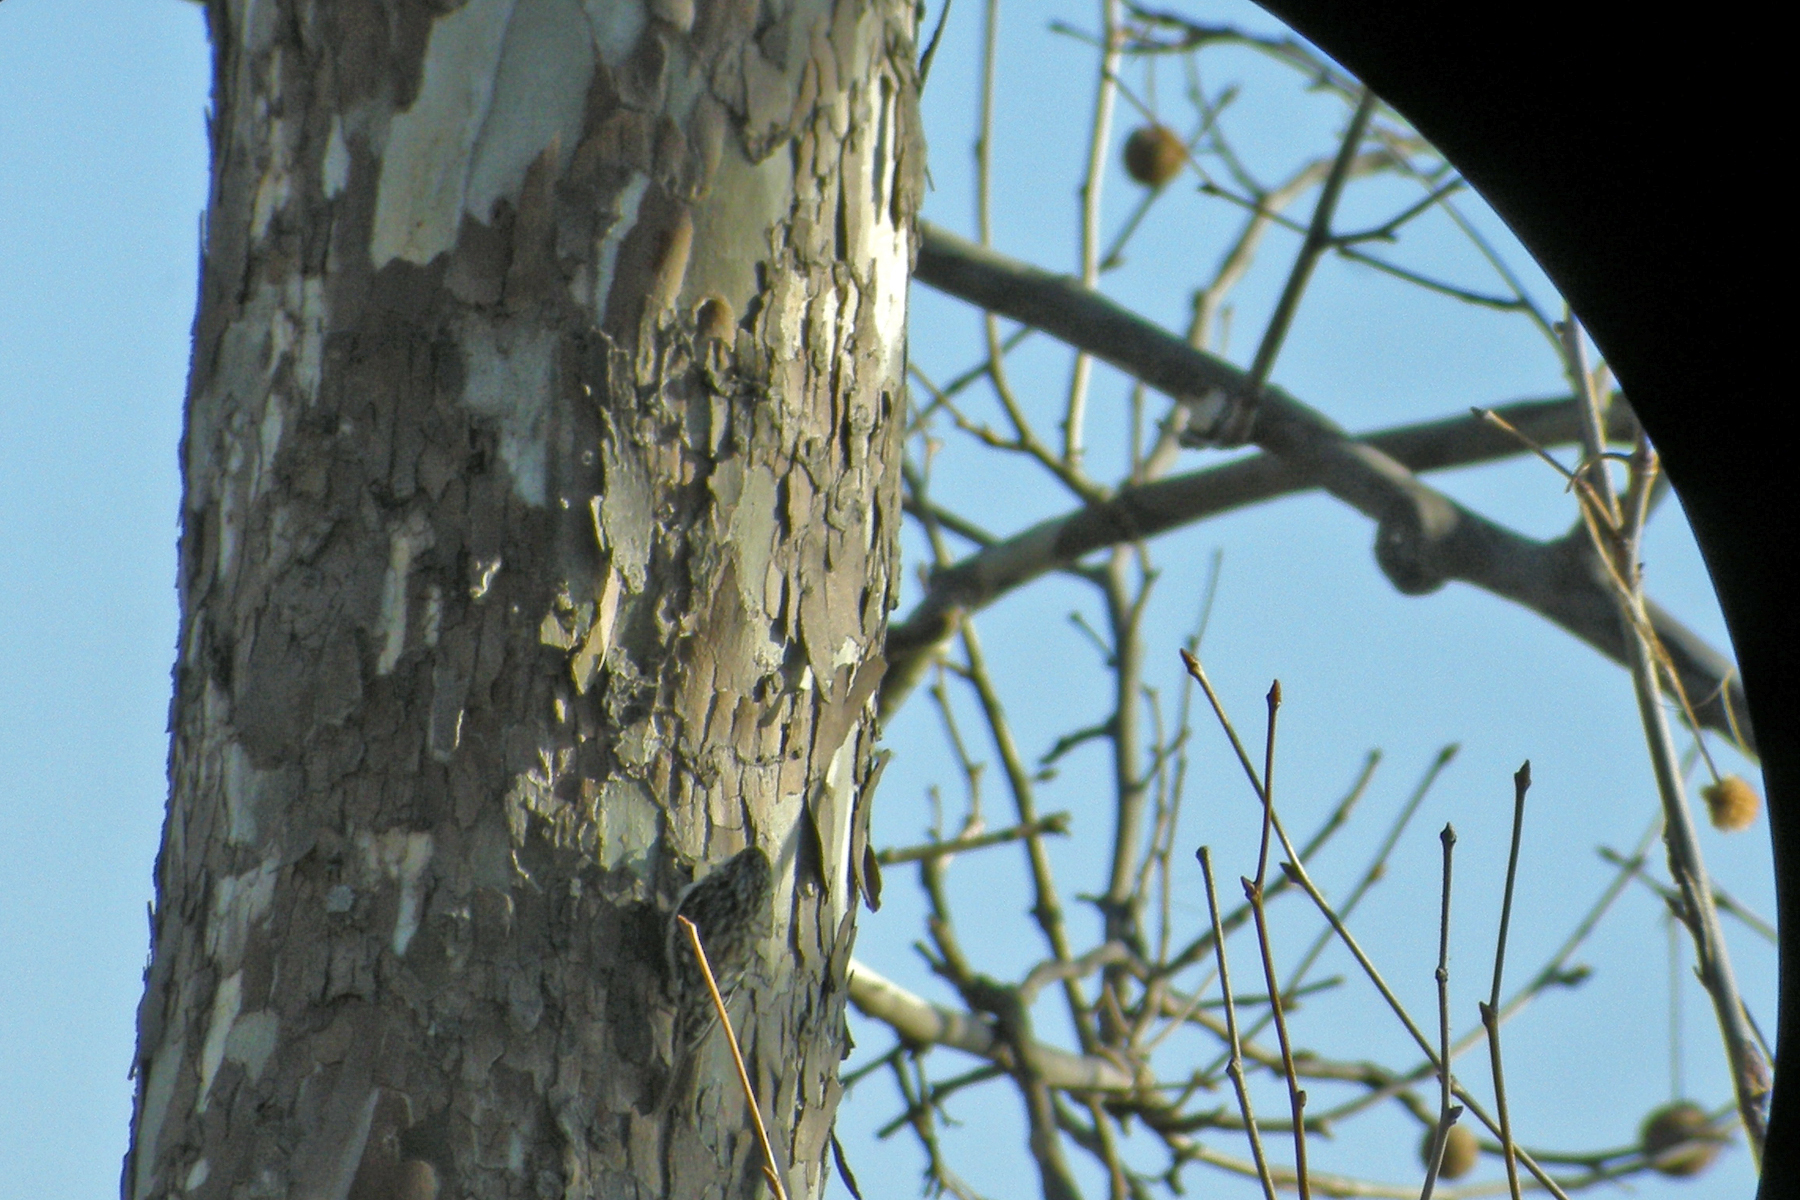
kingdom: Plantae
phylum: Tracheophyta
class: Magnoliopsida
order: Proteales
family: Platanaceae
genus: Platanus
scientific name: Platanus occidentalis
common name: American sycamore
